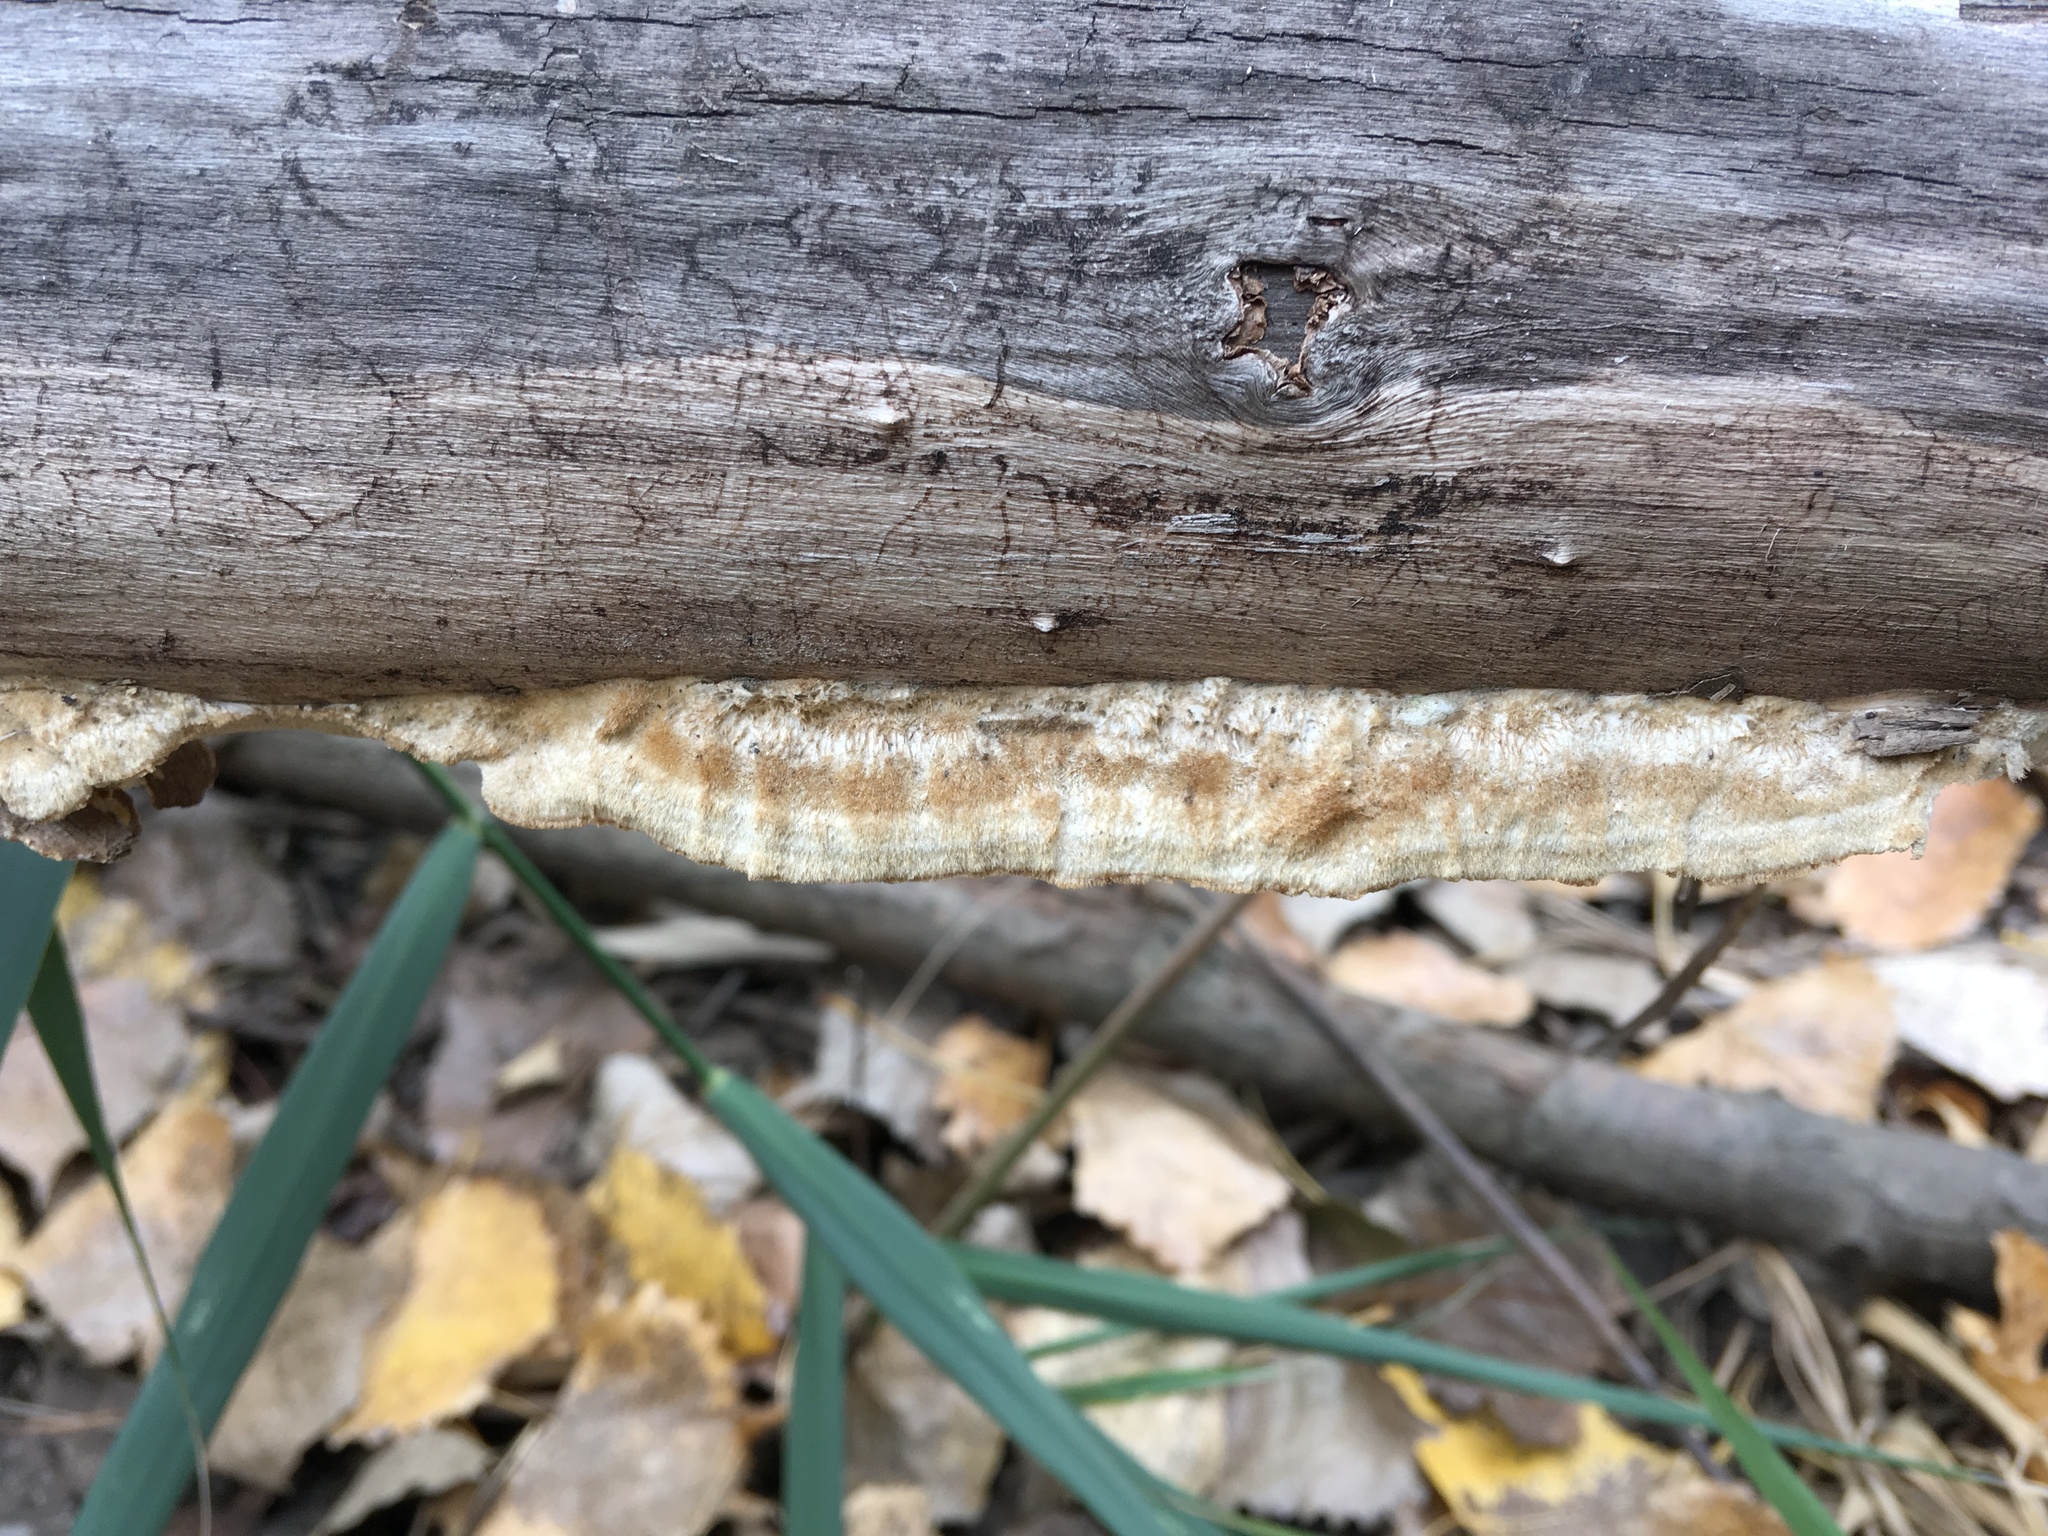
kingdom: Fungi
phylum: Basidiomycota
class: Agaricomycetes
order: Polyporales
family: Polyporaceae
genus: Trametes
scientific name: Trametes hirsuta
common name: Hairy bracket
